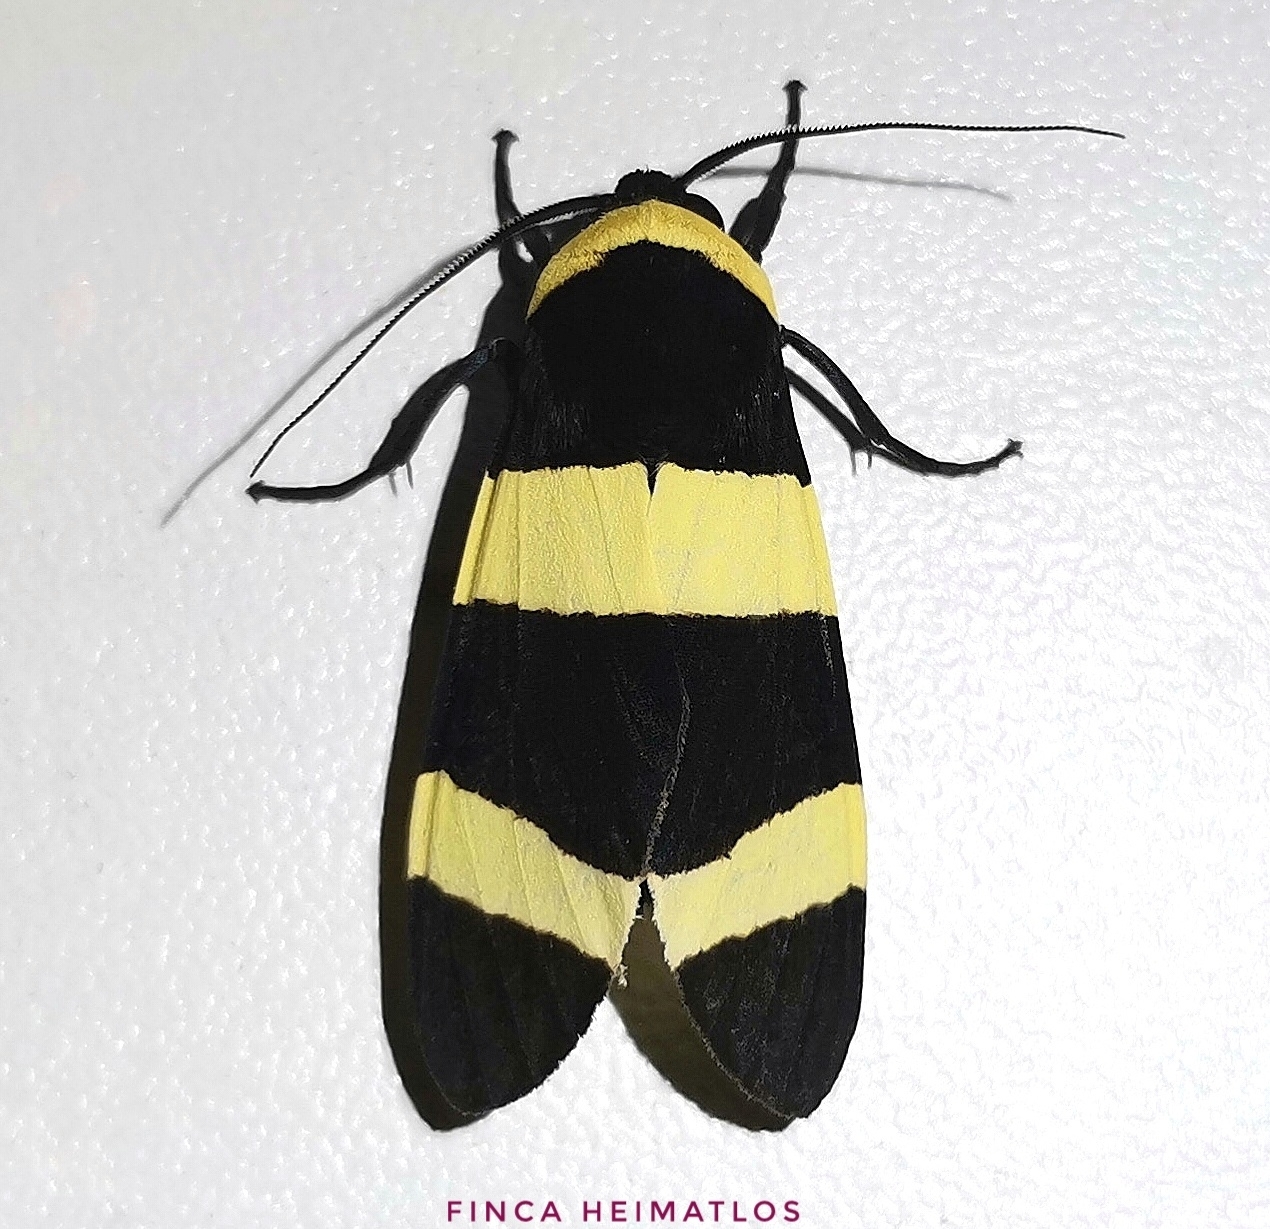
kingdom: Animalia
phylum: Arthropoda
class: Insecta
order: Lepidoptera
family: Erebidae
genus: Viviennea
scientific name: Viviennea moma
